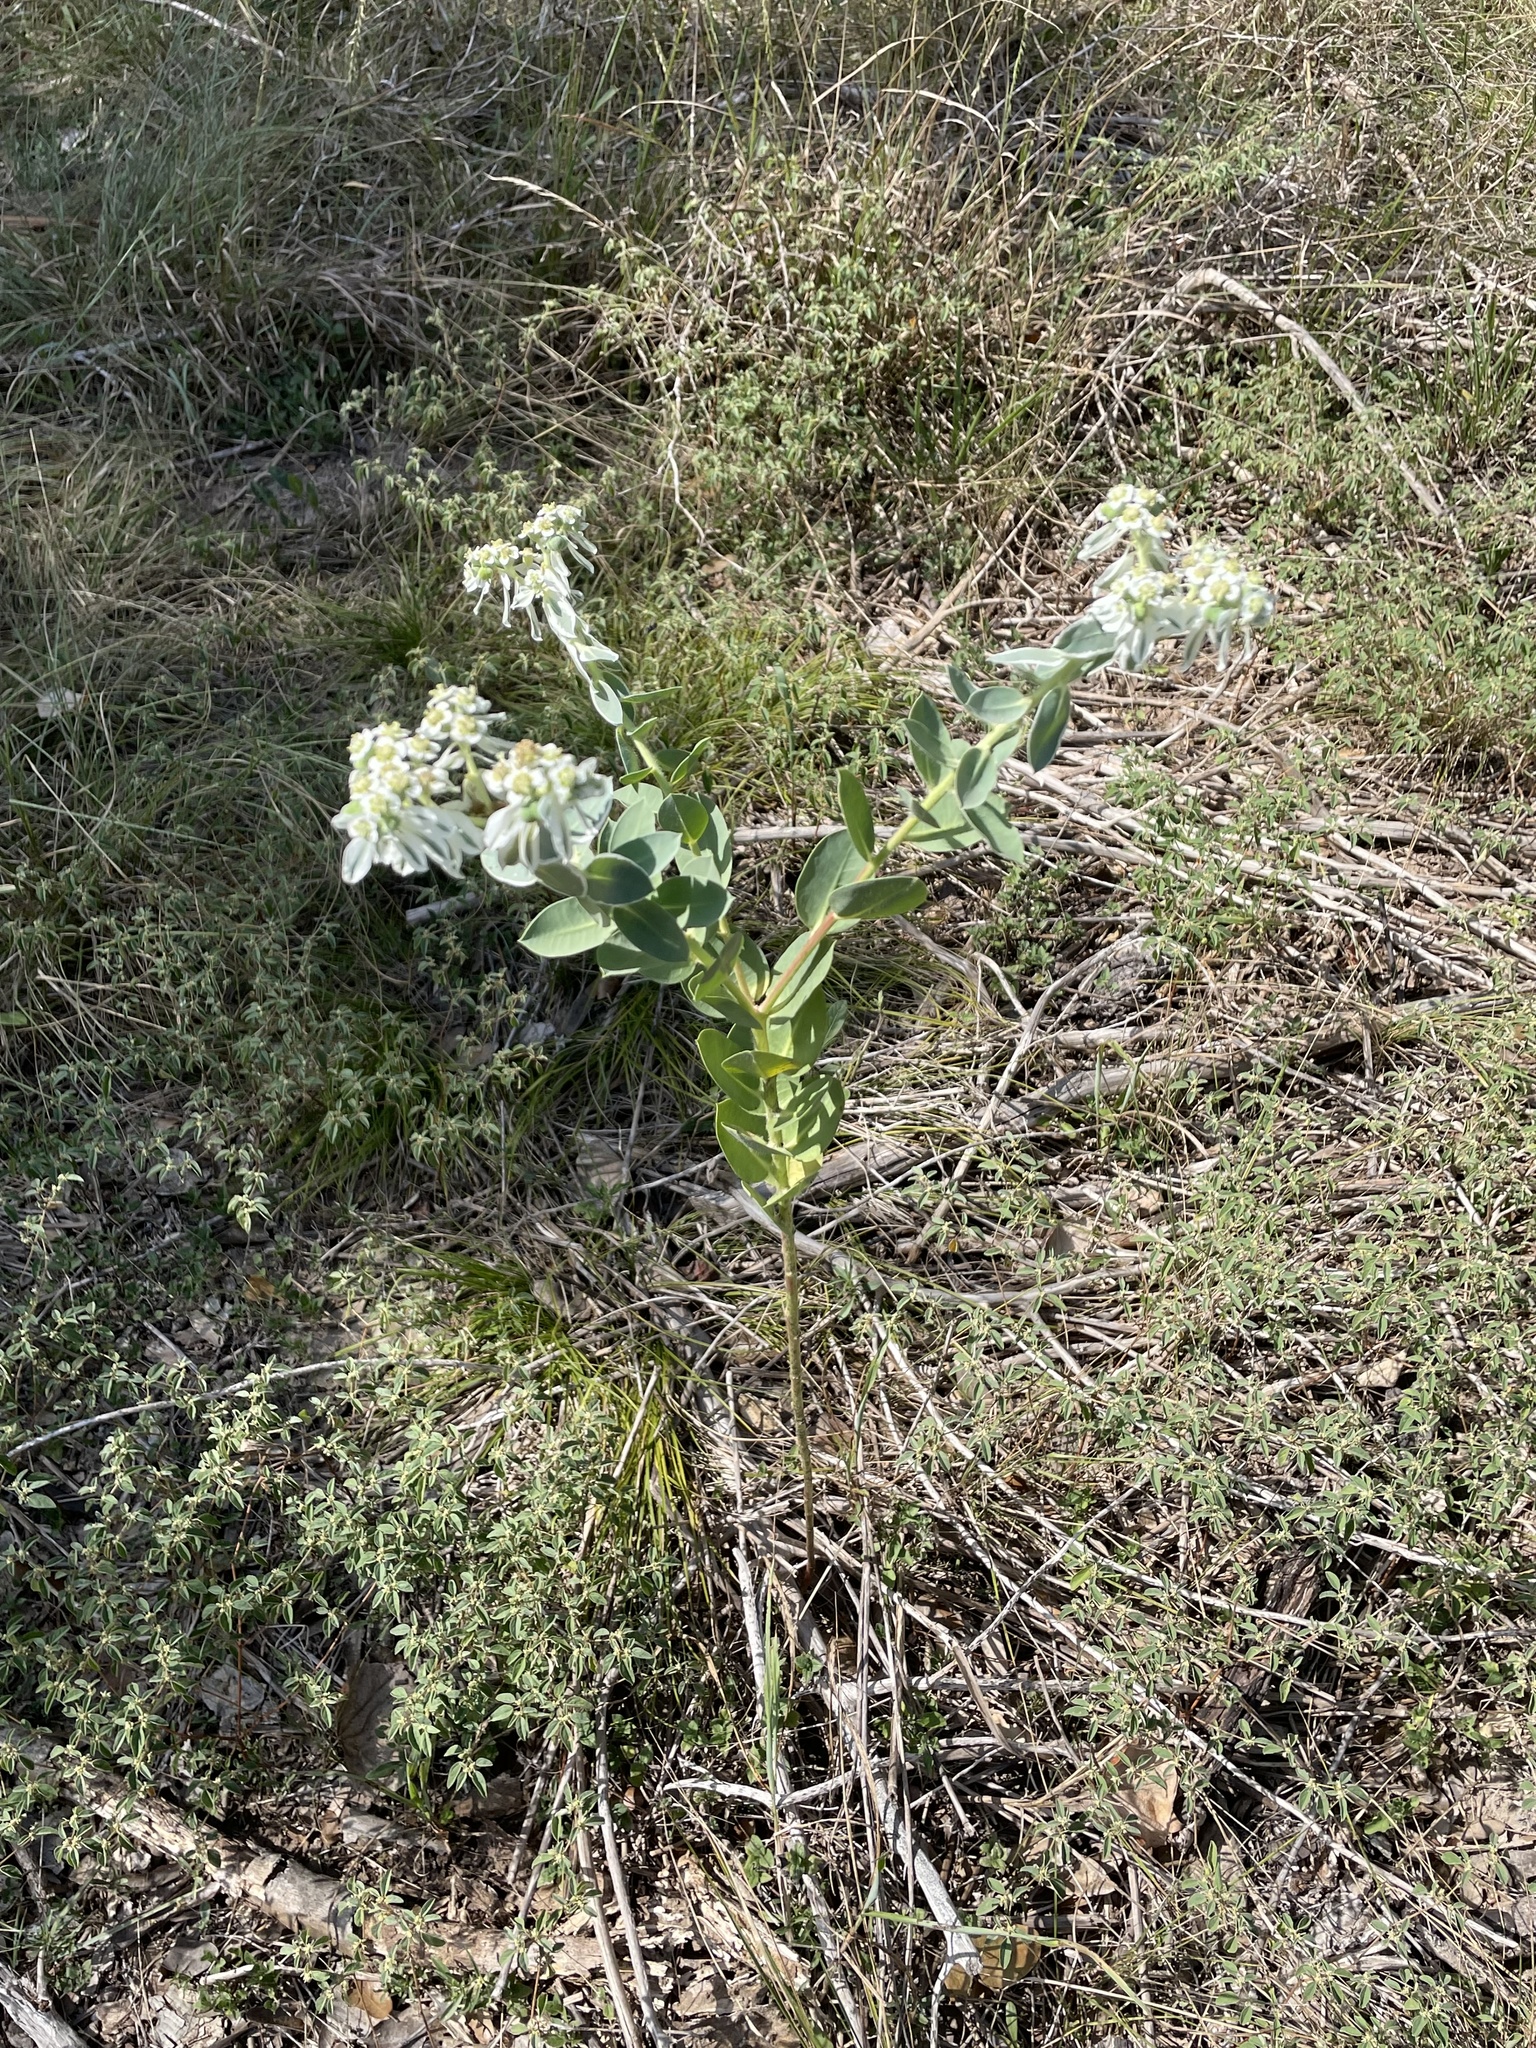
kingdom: Plantae
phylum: Tracheophyta
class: Magnoliopsida
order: Malpighiales
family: Euphorbiaceae
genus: Euphorbia
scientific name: Euphorbia marginata
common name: Ghostweed
